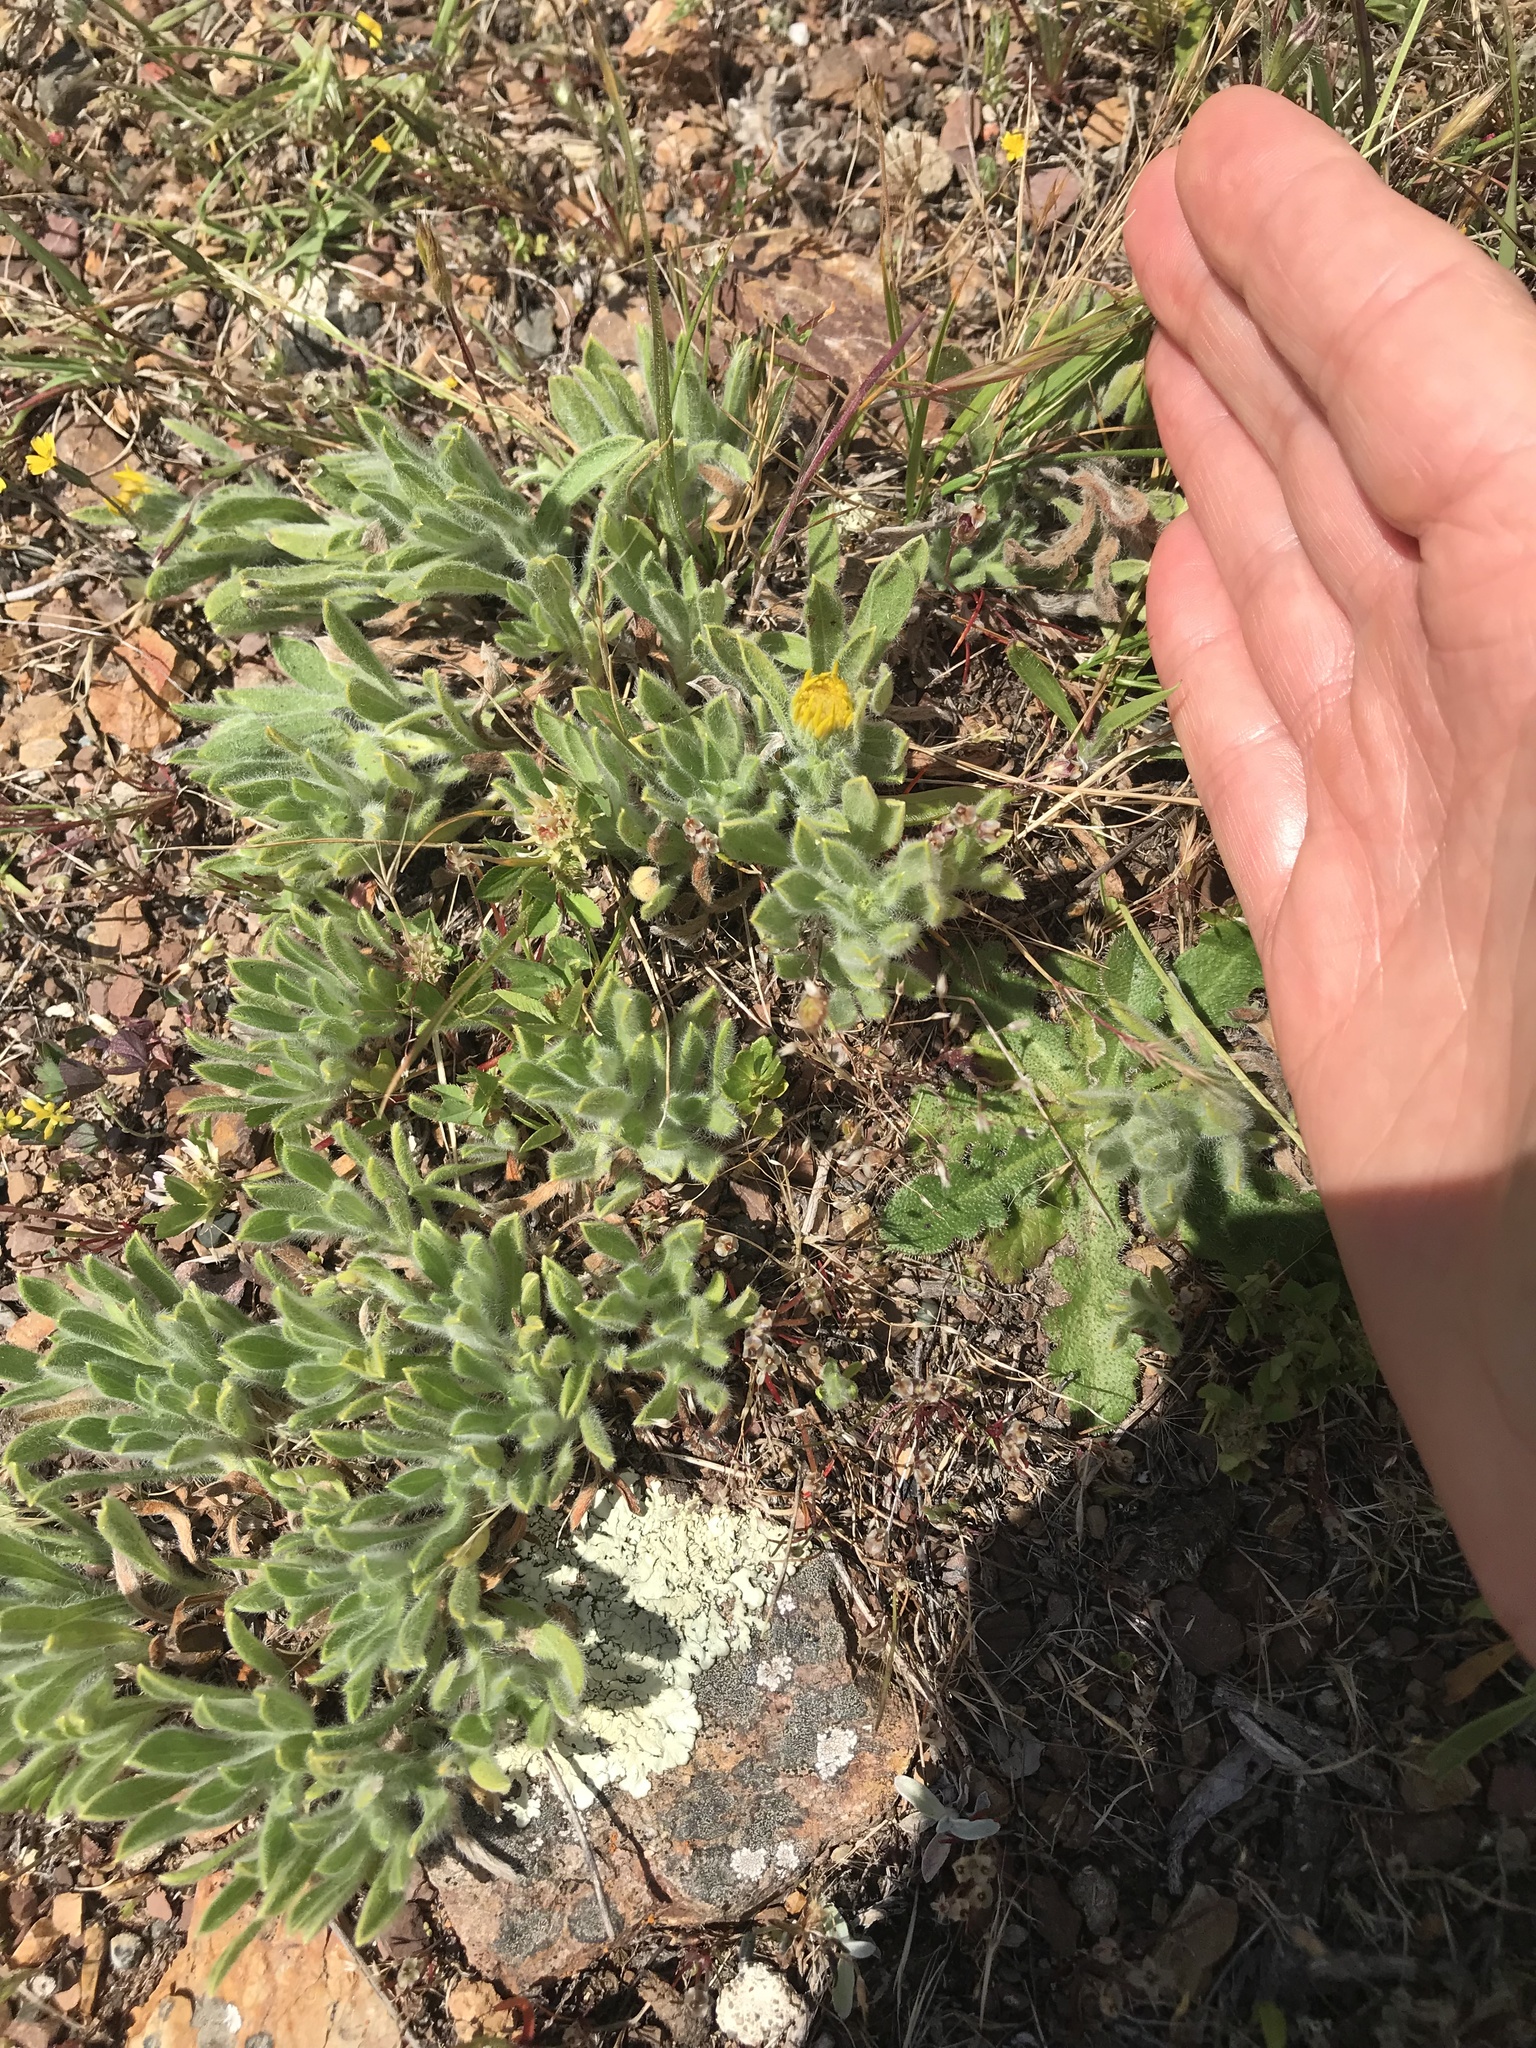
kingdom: Plantae
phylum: Tracheophyta
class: Magnoliopsida
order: Asterales
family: Asteraceae
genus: Heterotheca
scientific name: Heterotheca bolanderi
